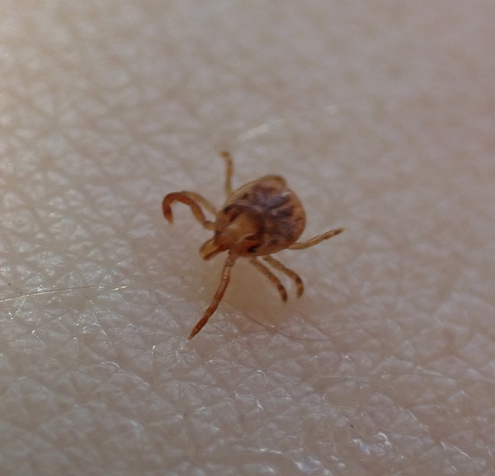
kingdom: Animalia
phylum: Arthropoda
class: Arachnida
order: Ixodida
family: Ixodidae
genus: Amblyomma
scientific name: Amblyomma americanum
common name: Lone star tick
